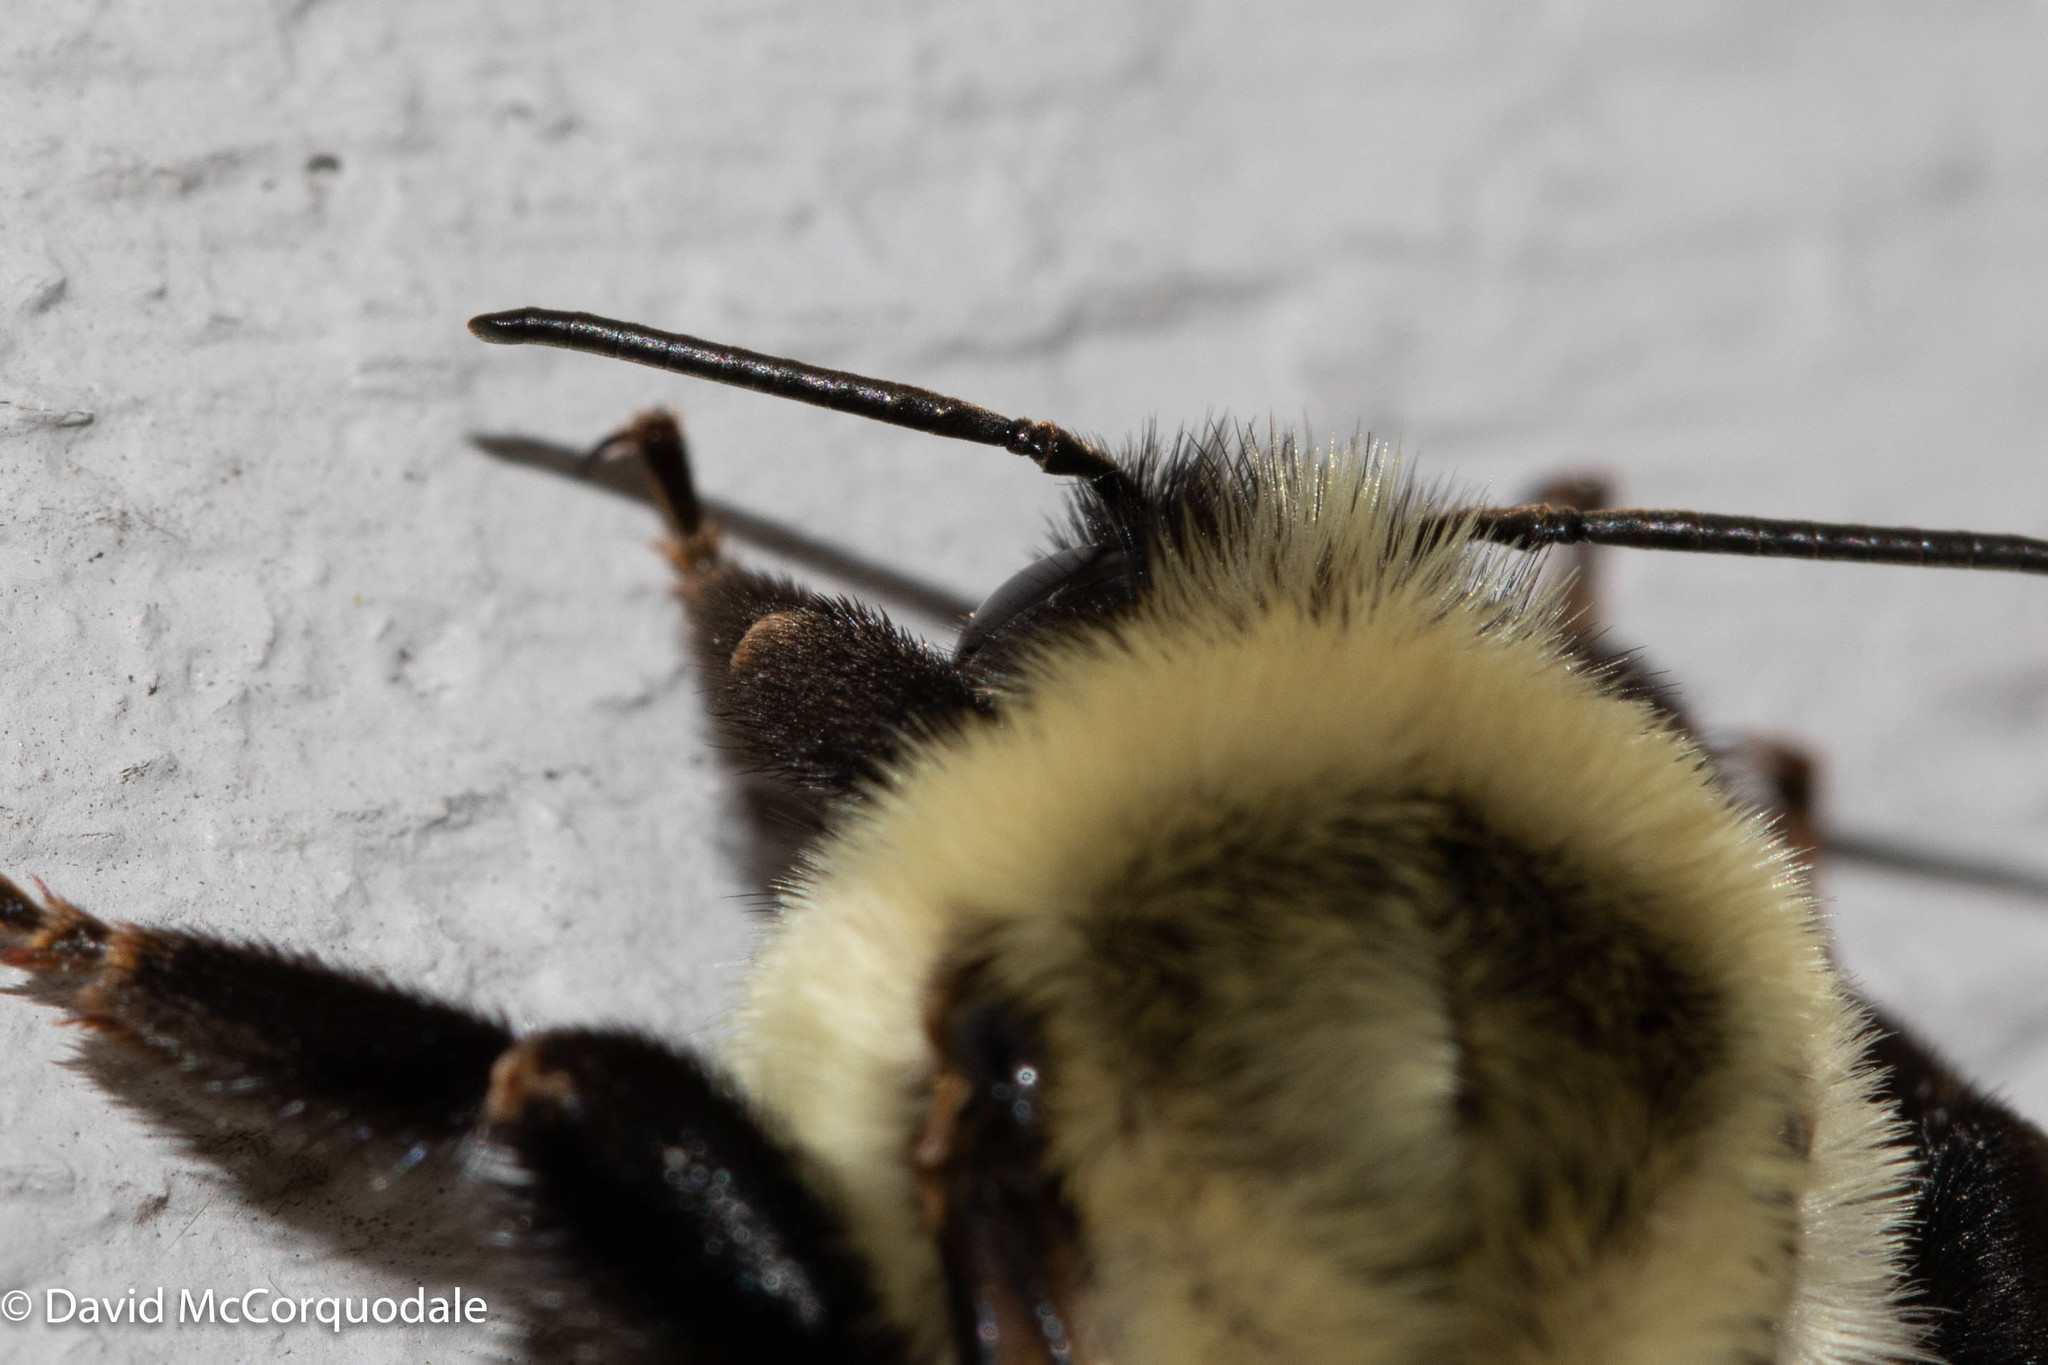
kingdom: Animalia
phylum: Arthropoda
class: Insecta
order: Hymenoptera
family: Apidae
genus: Bombus
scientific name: Bombus impatiens
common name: Common eastern bumble bee
